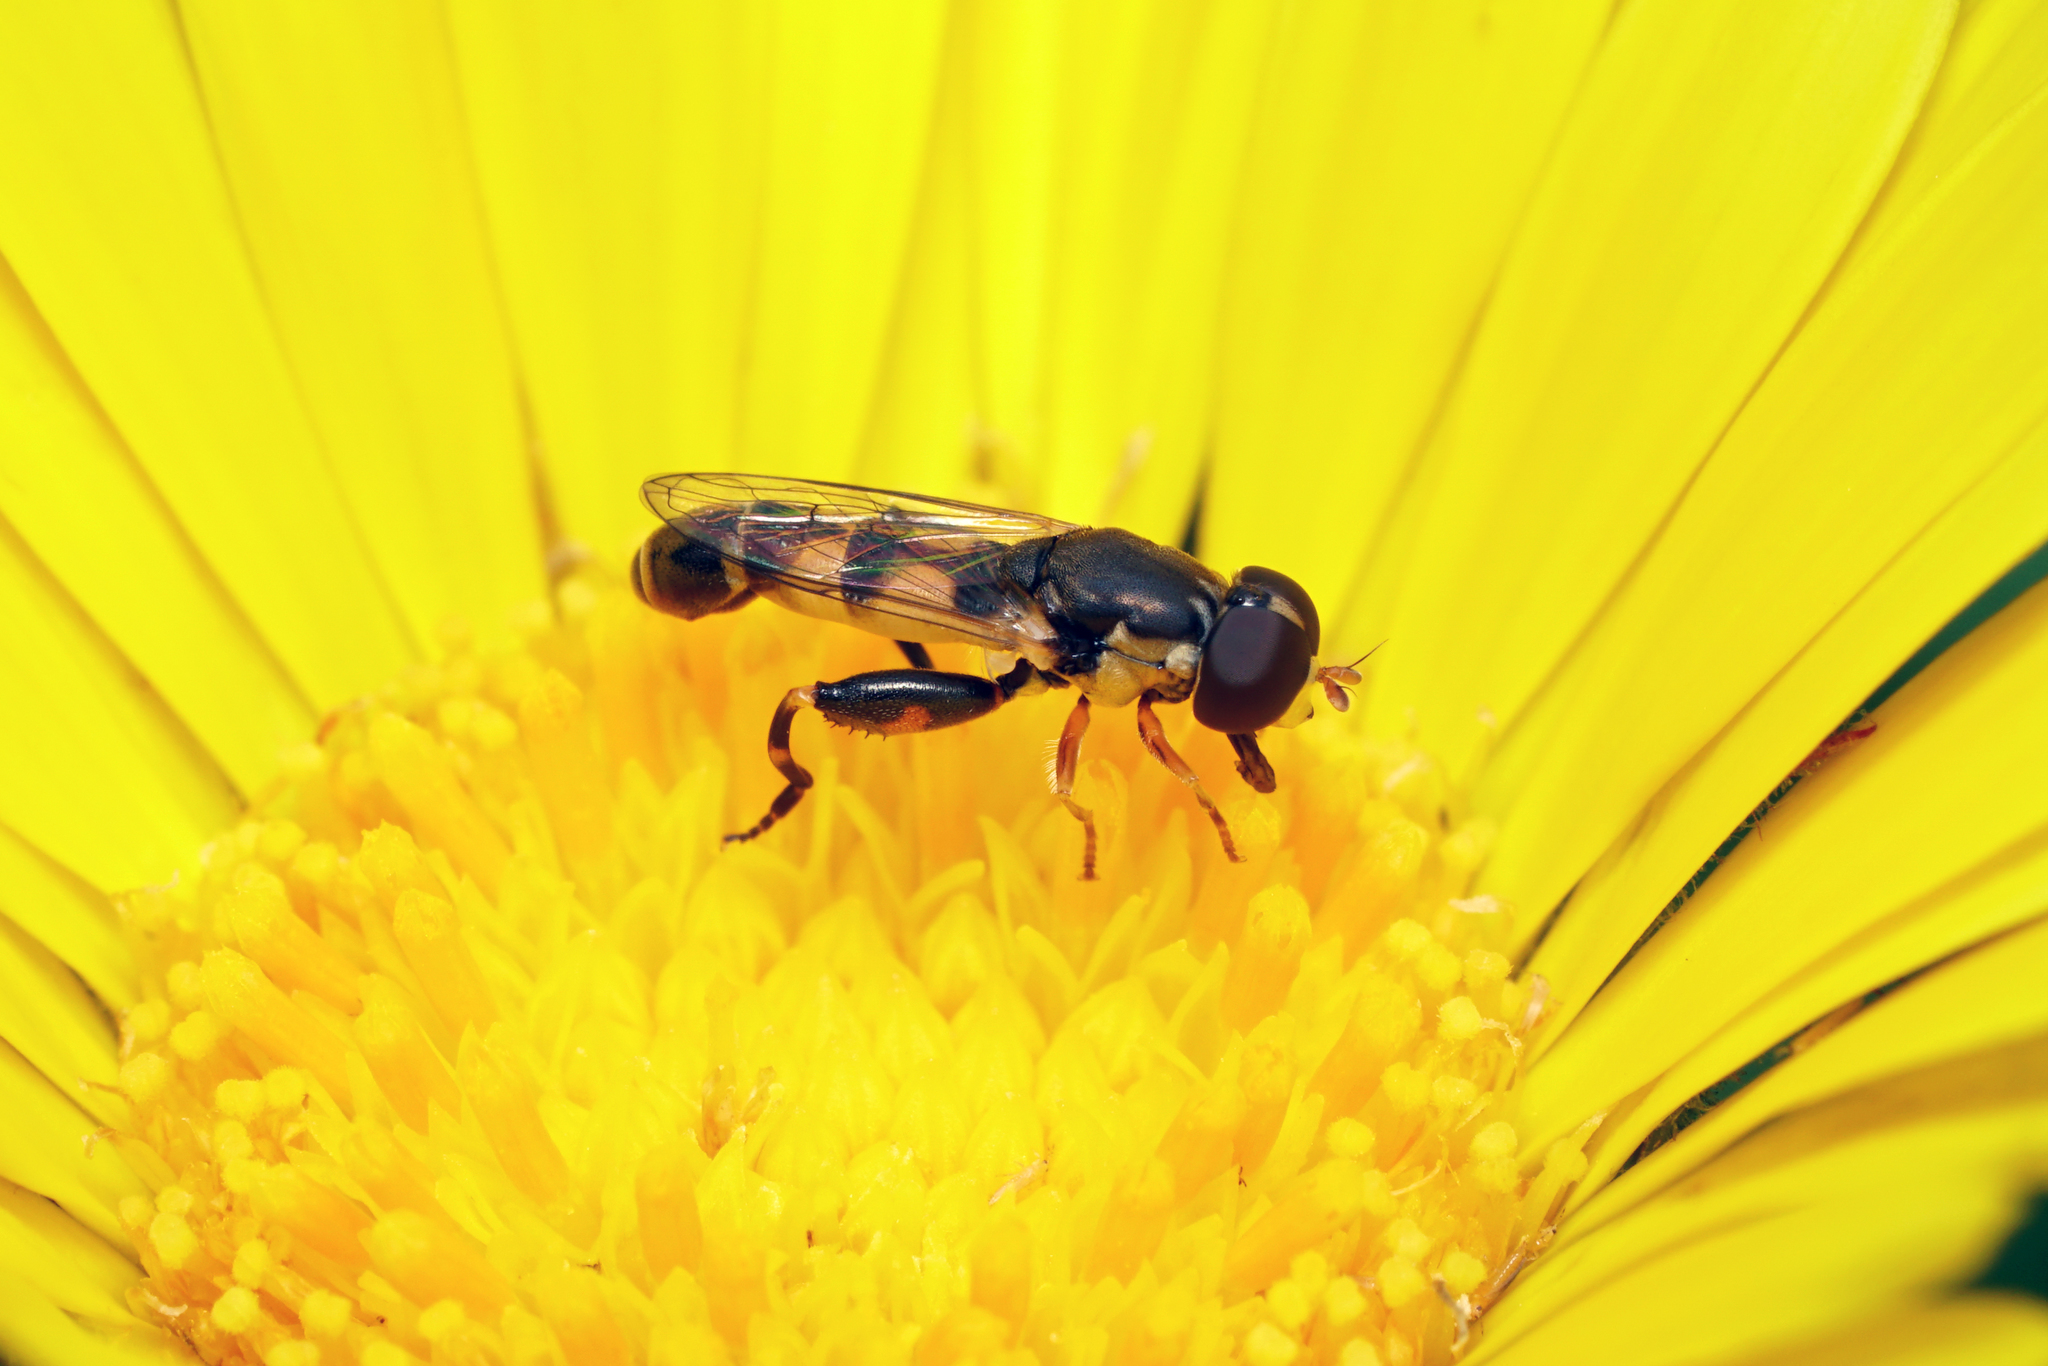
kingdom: Animalia
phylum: Arthropoda
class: Insecta
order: Diptera
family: Syrphidae
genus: Syritta
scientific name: Syritta pipiens
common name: Hover fly
